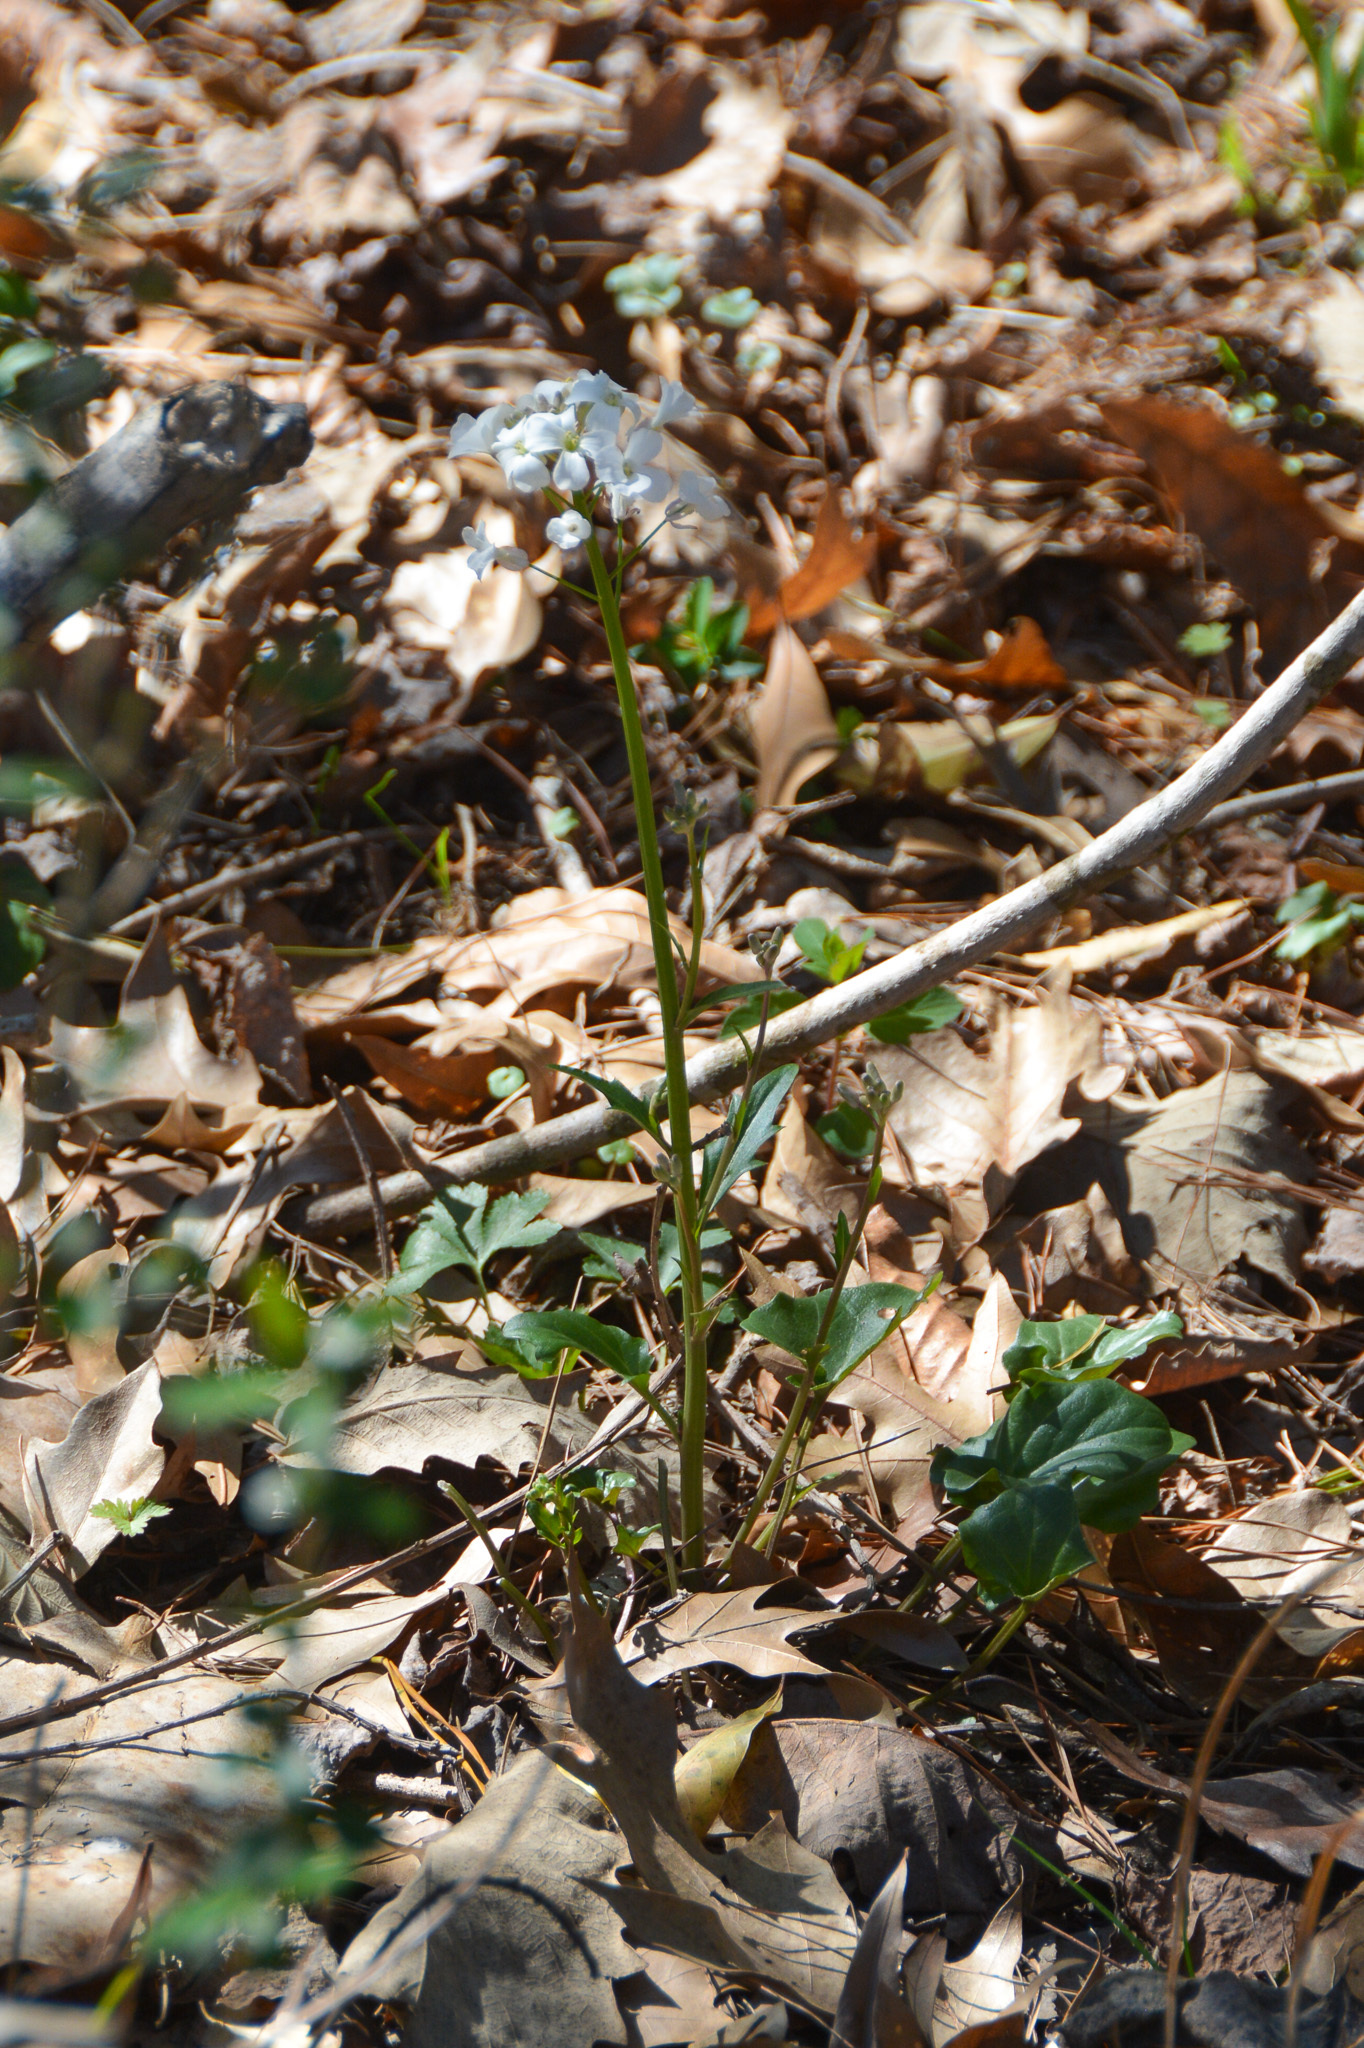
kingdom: Plantae
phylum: Tracheophyta
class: Magnoliopsida
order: Brassicales
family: Brassicaceae
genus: Cardamine
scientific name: Cardamine bulbosa
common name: Spring cress
